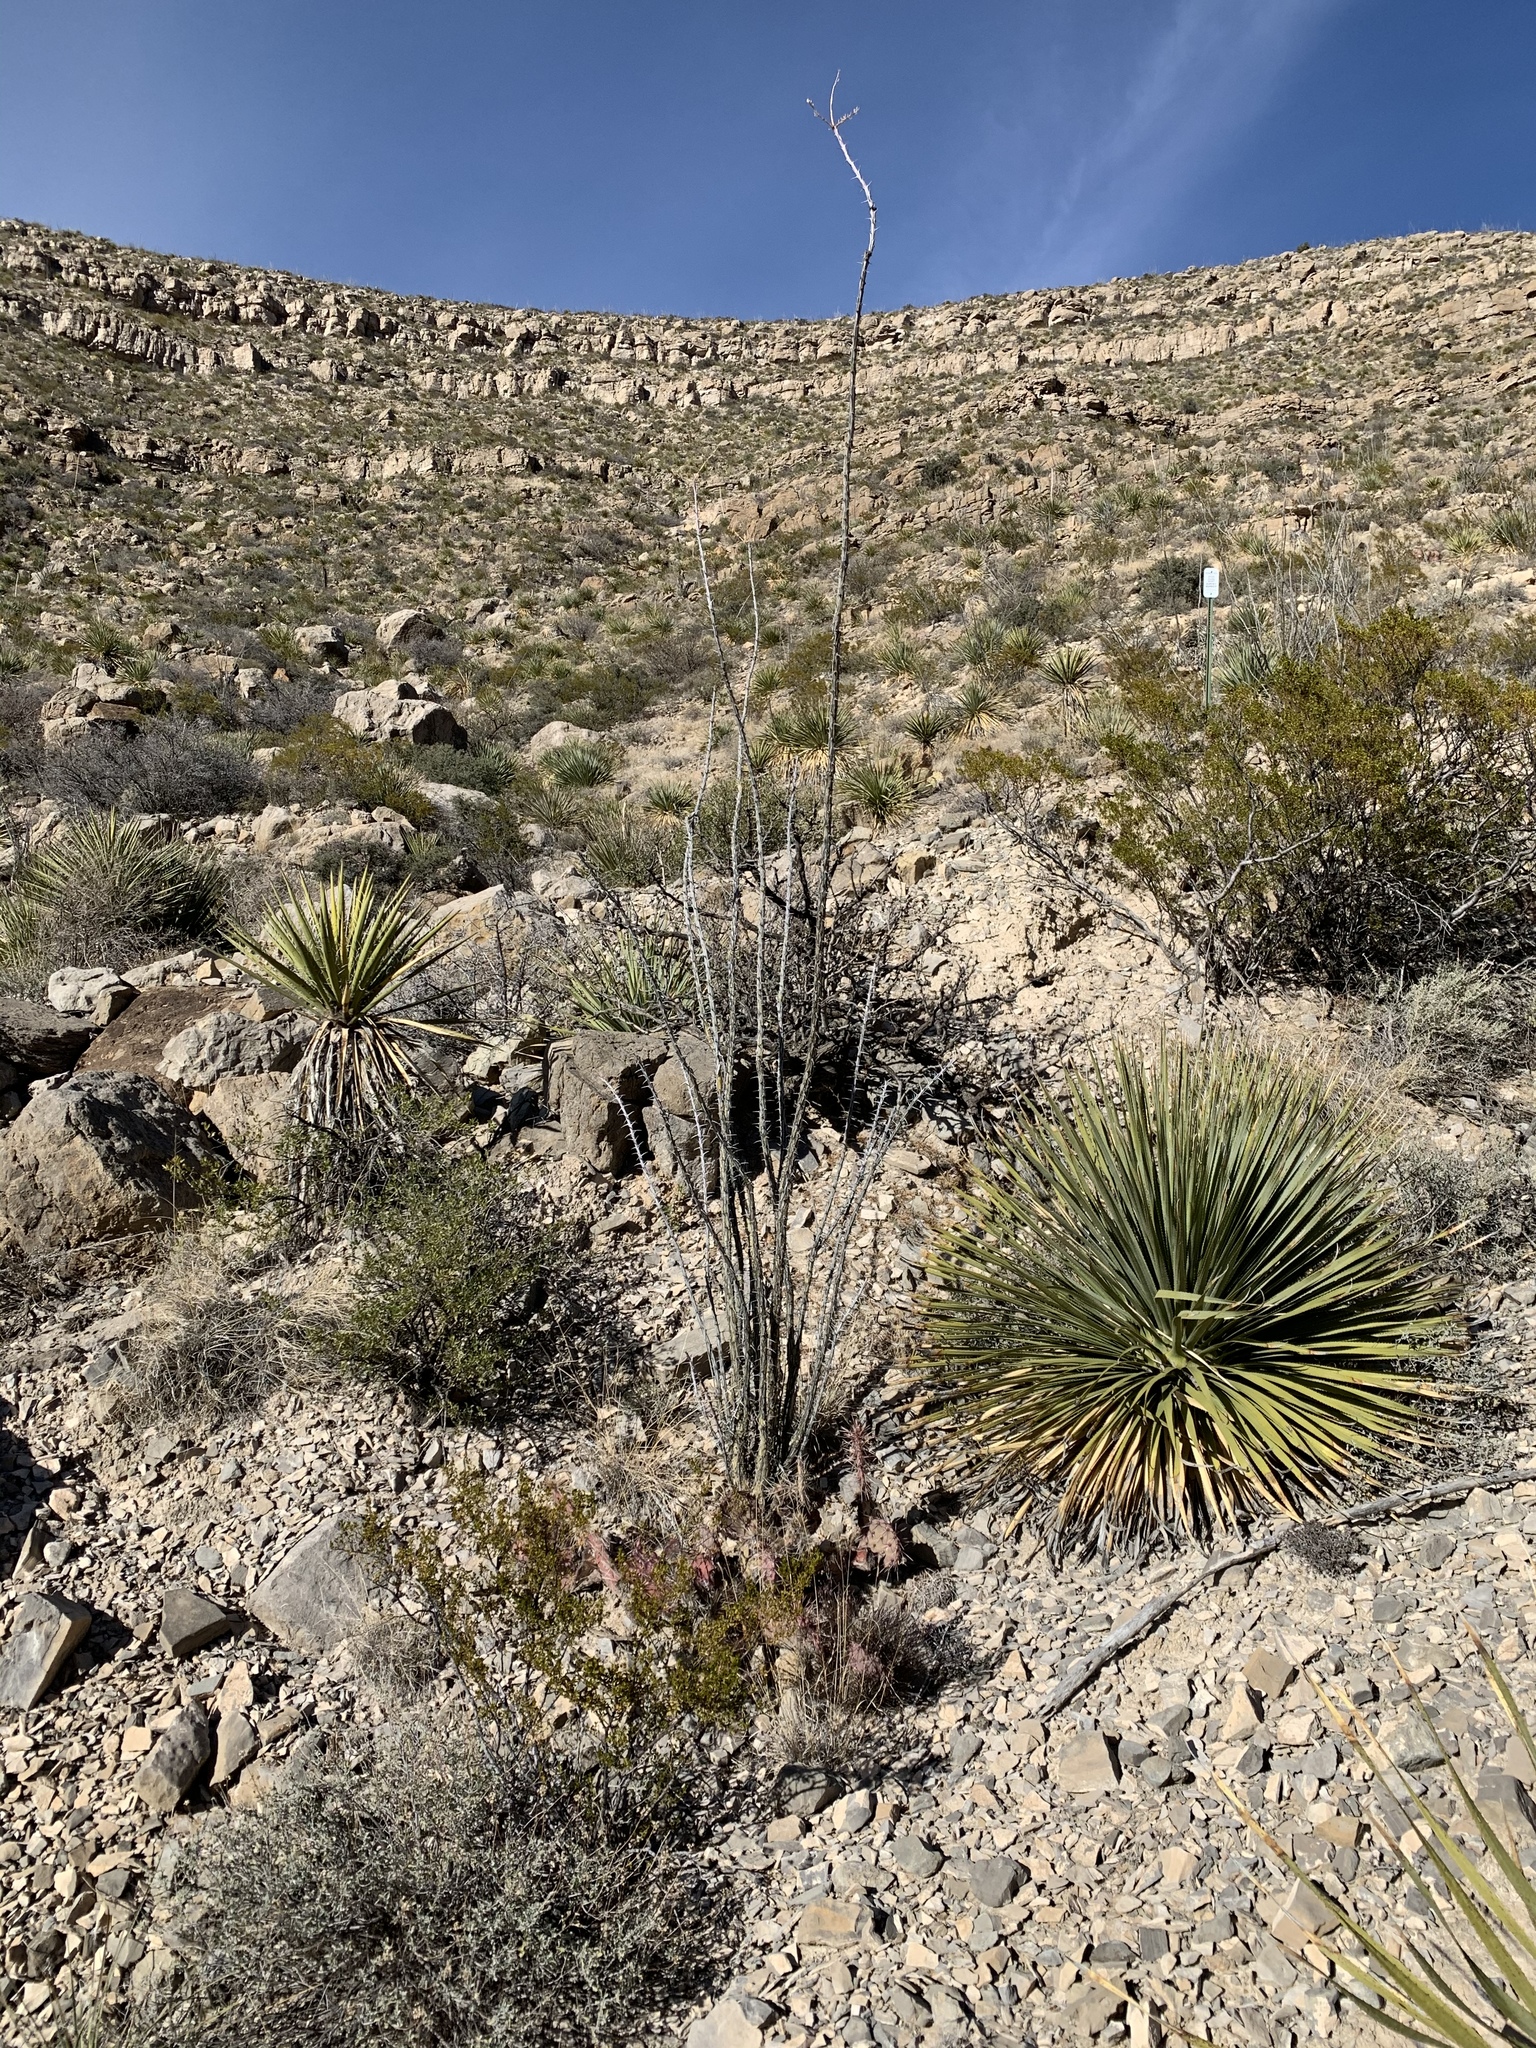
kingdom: Plantae
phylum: Tracheophyta
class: Magnoliopsida
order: Ericales
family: Fouquieriaceae
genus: Fouquieria
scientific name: Fouquieria splendens
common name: Vine-cactus
